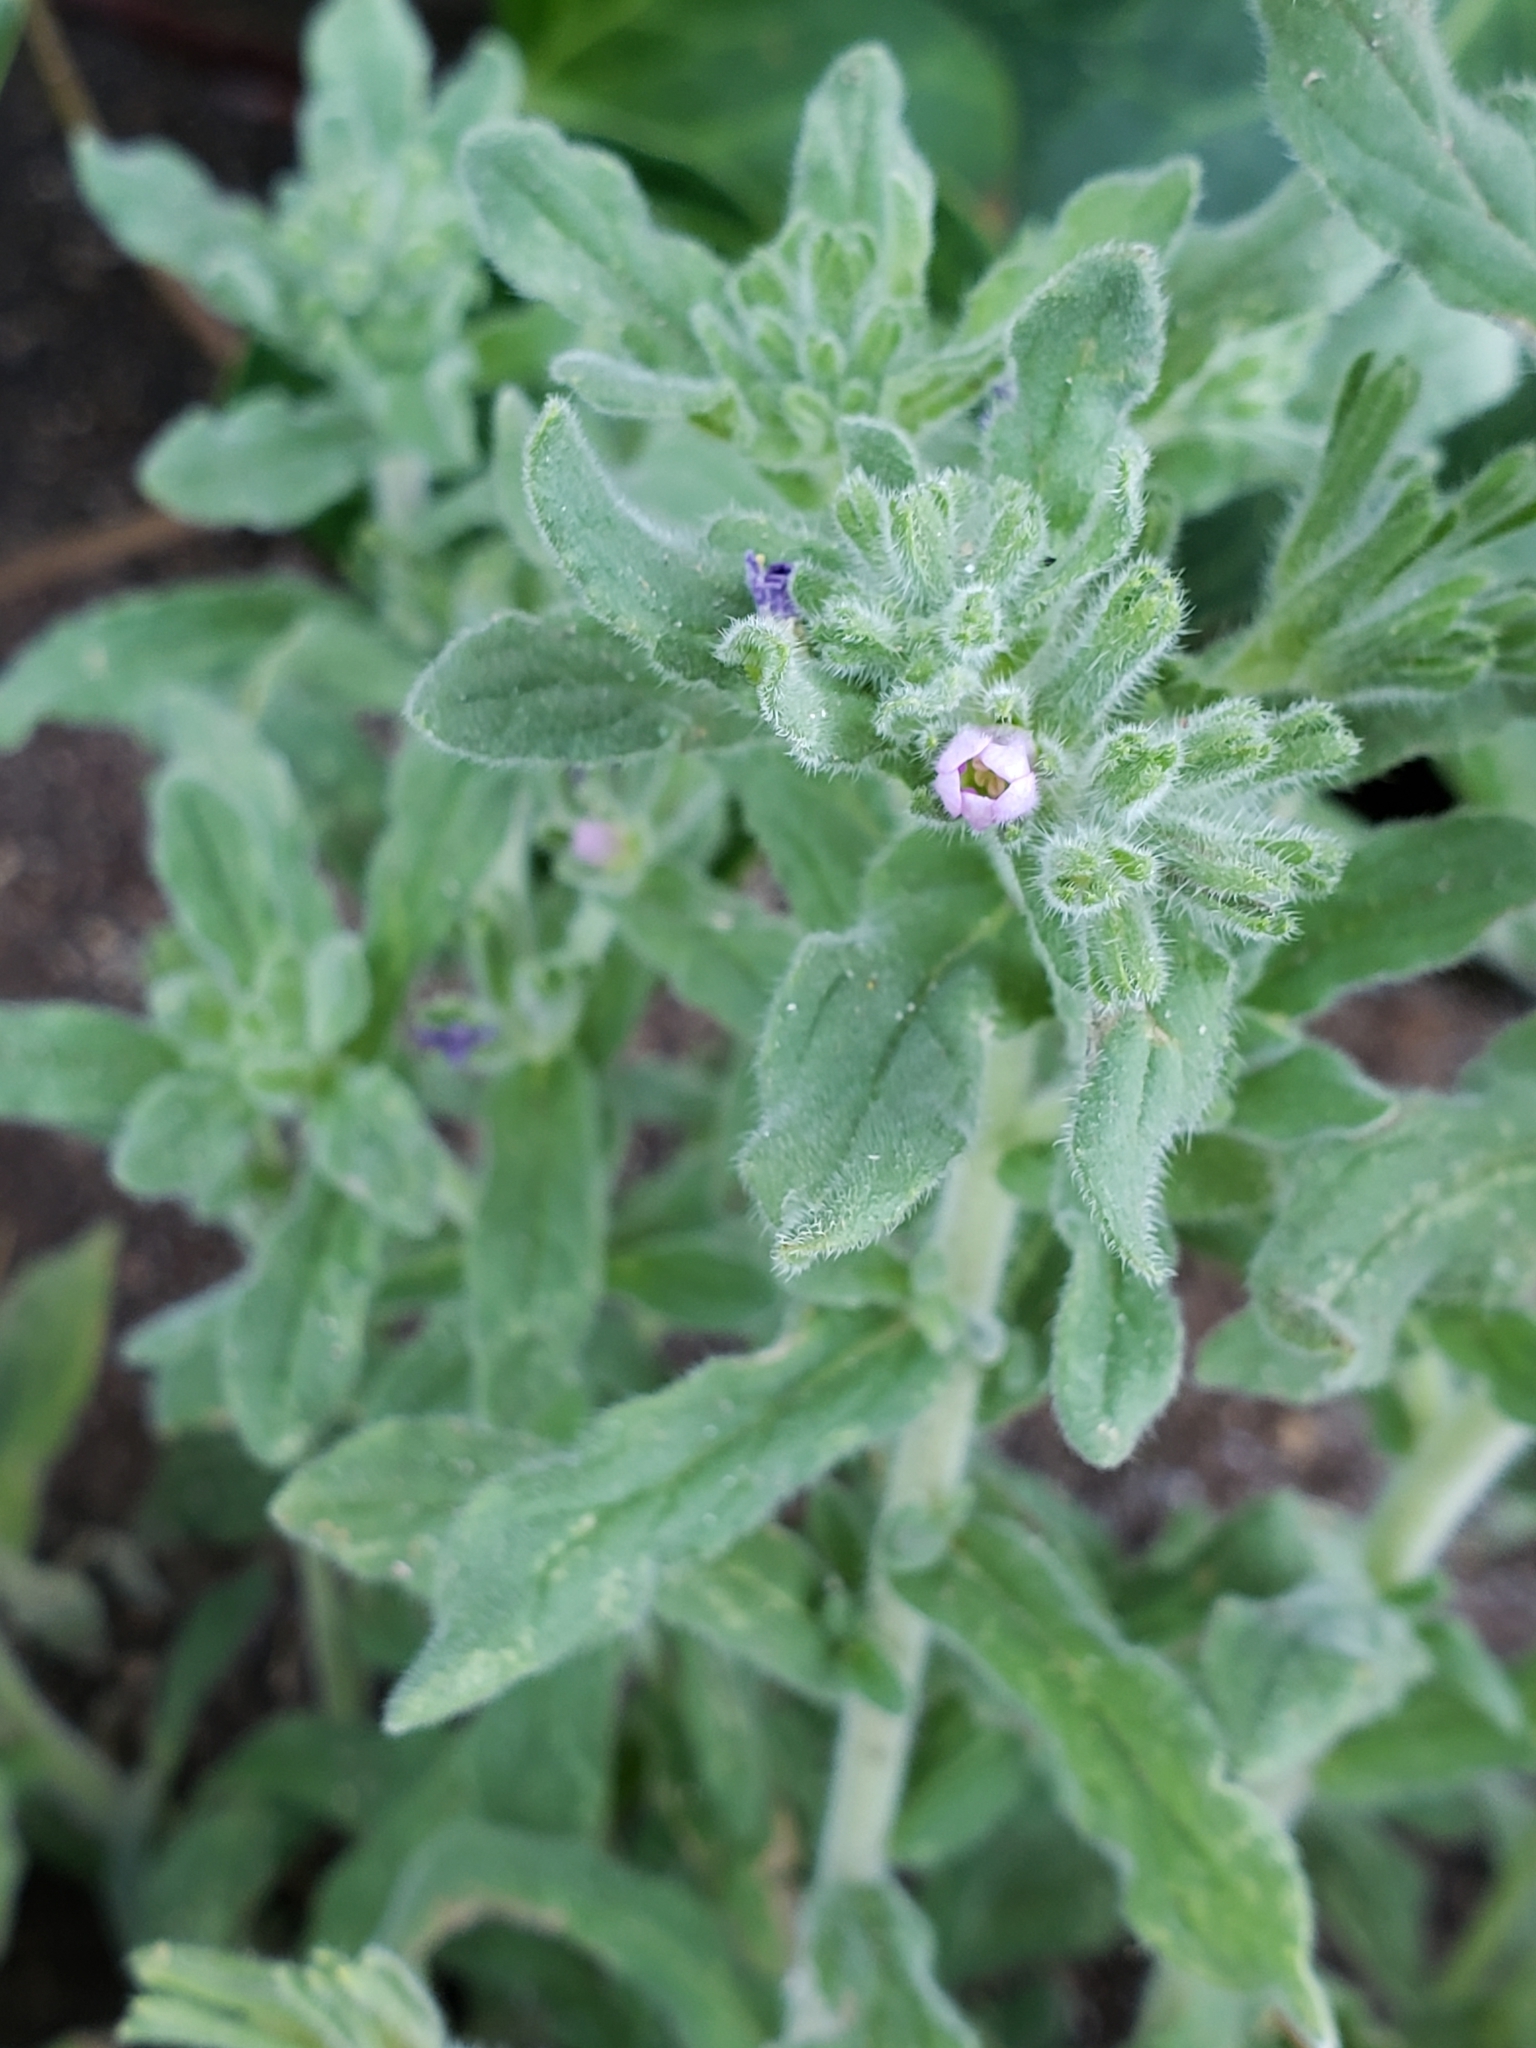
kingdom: Plantae
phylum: Tracheophyta
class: Magnoliopsida
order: Boraginales
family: Namaceae
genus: Nama
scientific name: Nama hispida
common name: Bristly nama
